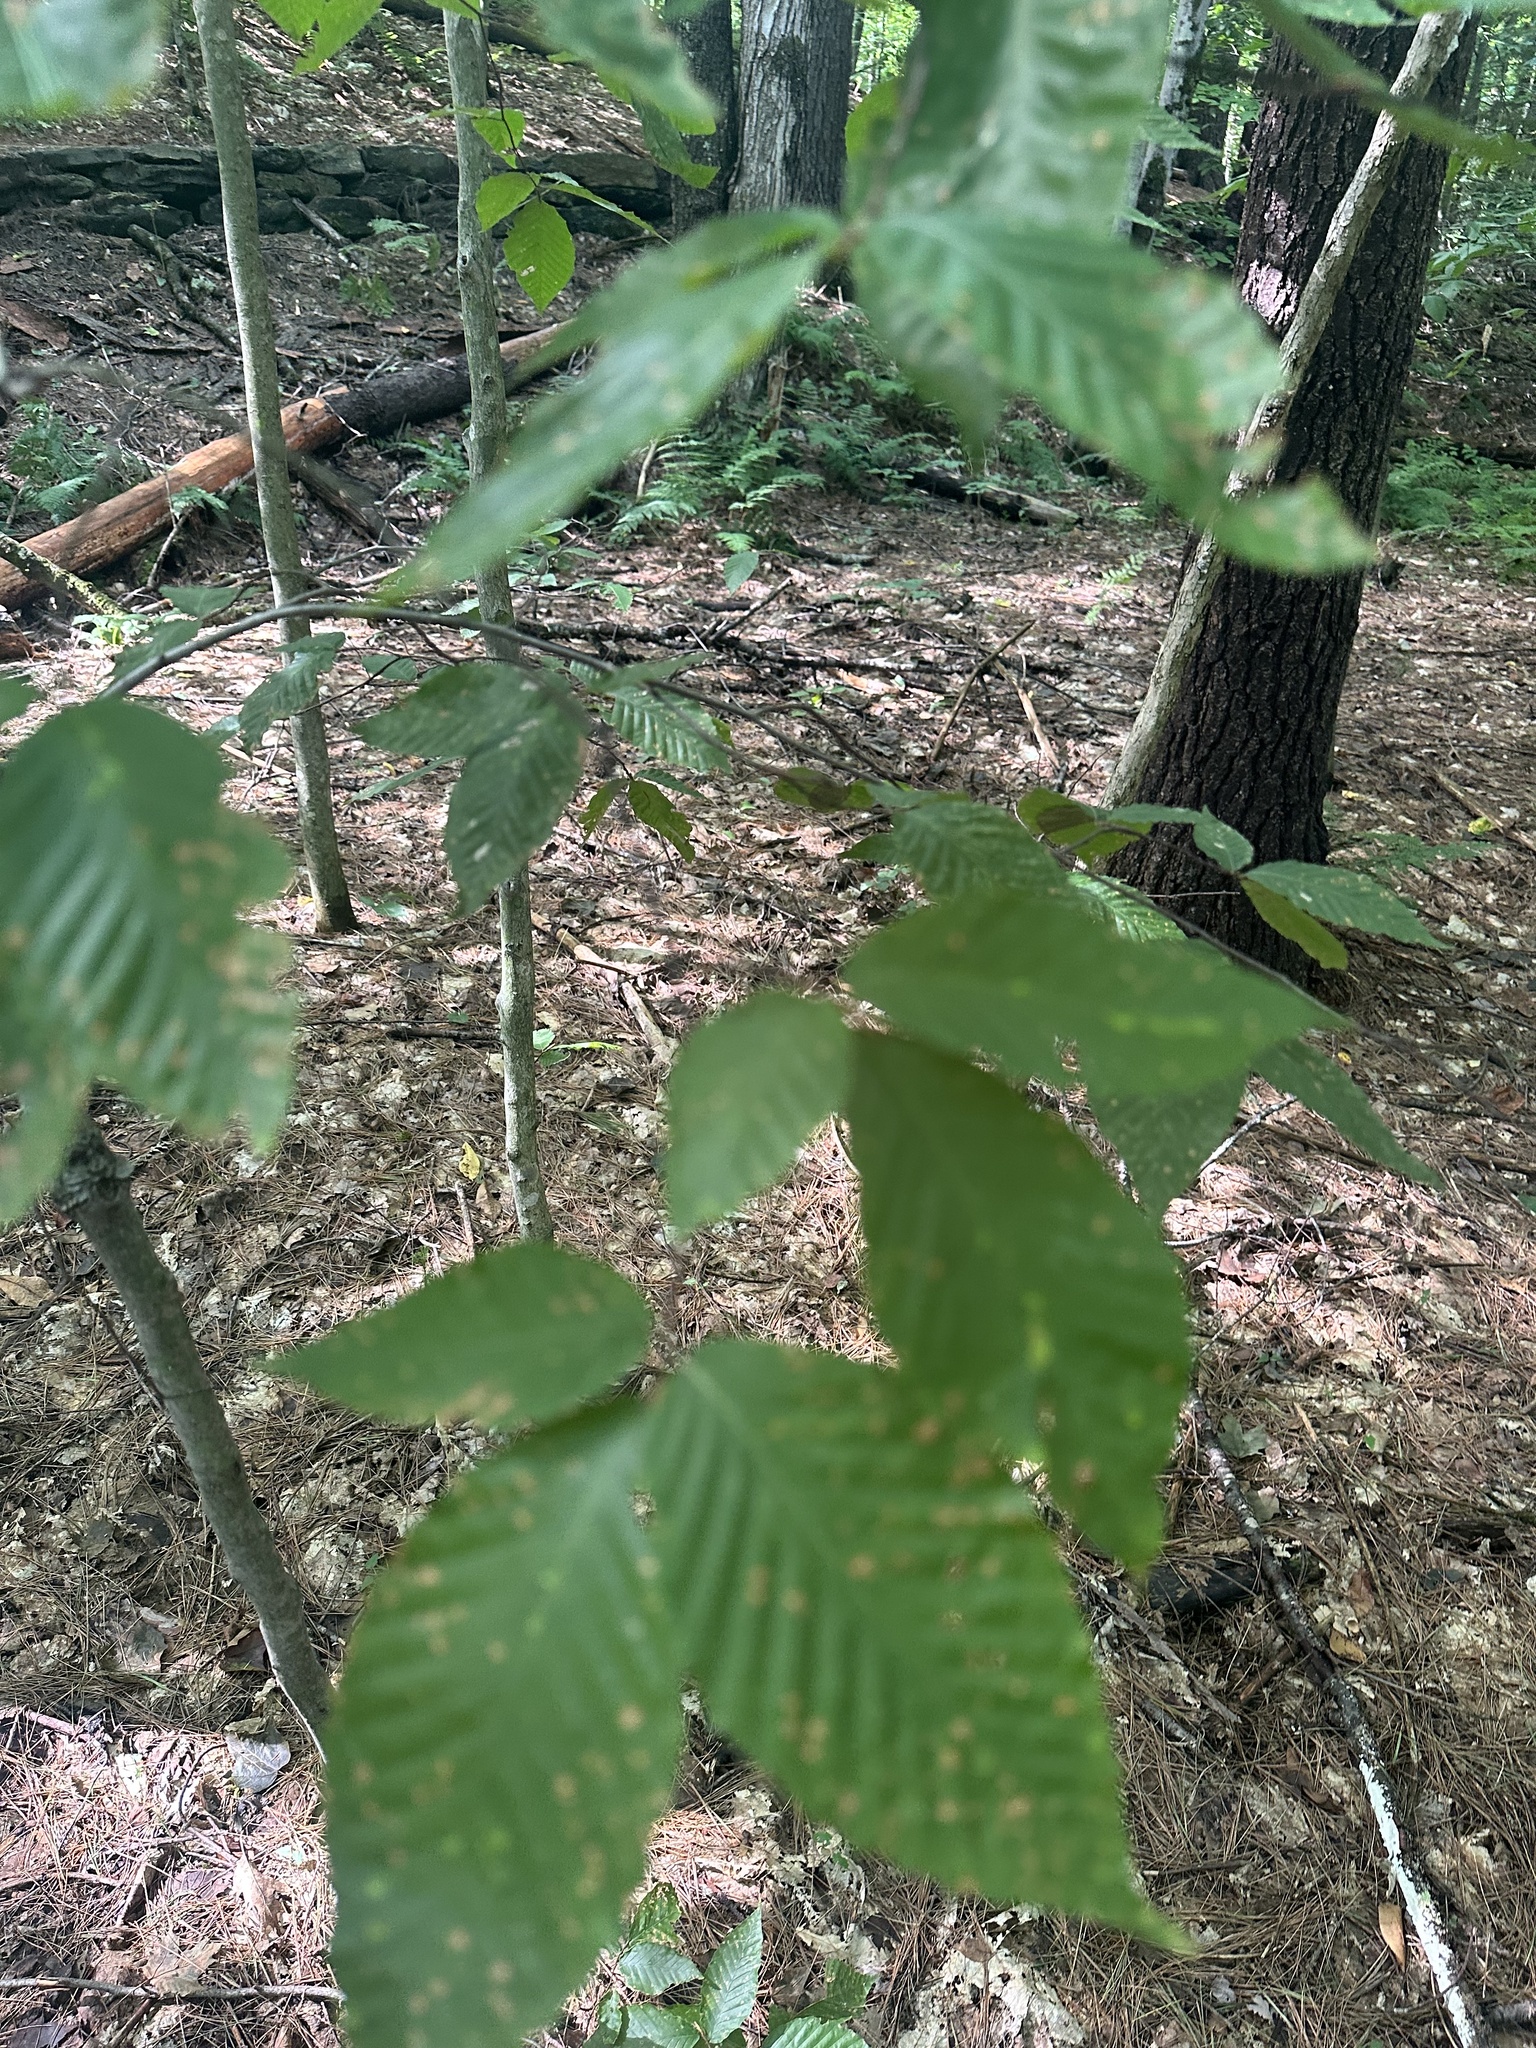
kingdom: Plantae
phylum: Tracheophyta
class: Magnoliopsida
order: Fagales
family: Fagaceae
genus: Fagus
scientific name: Fagus grandifolia
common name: American beech
